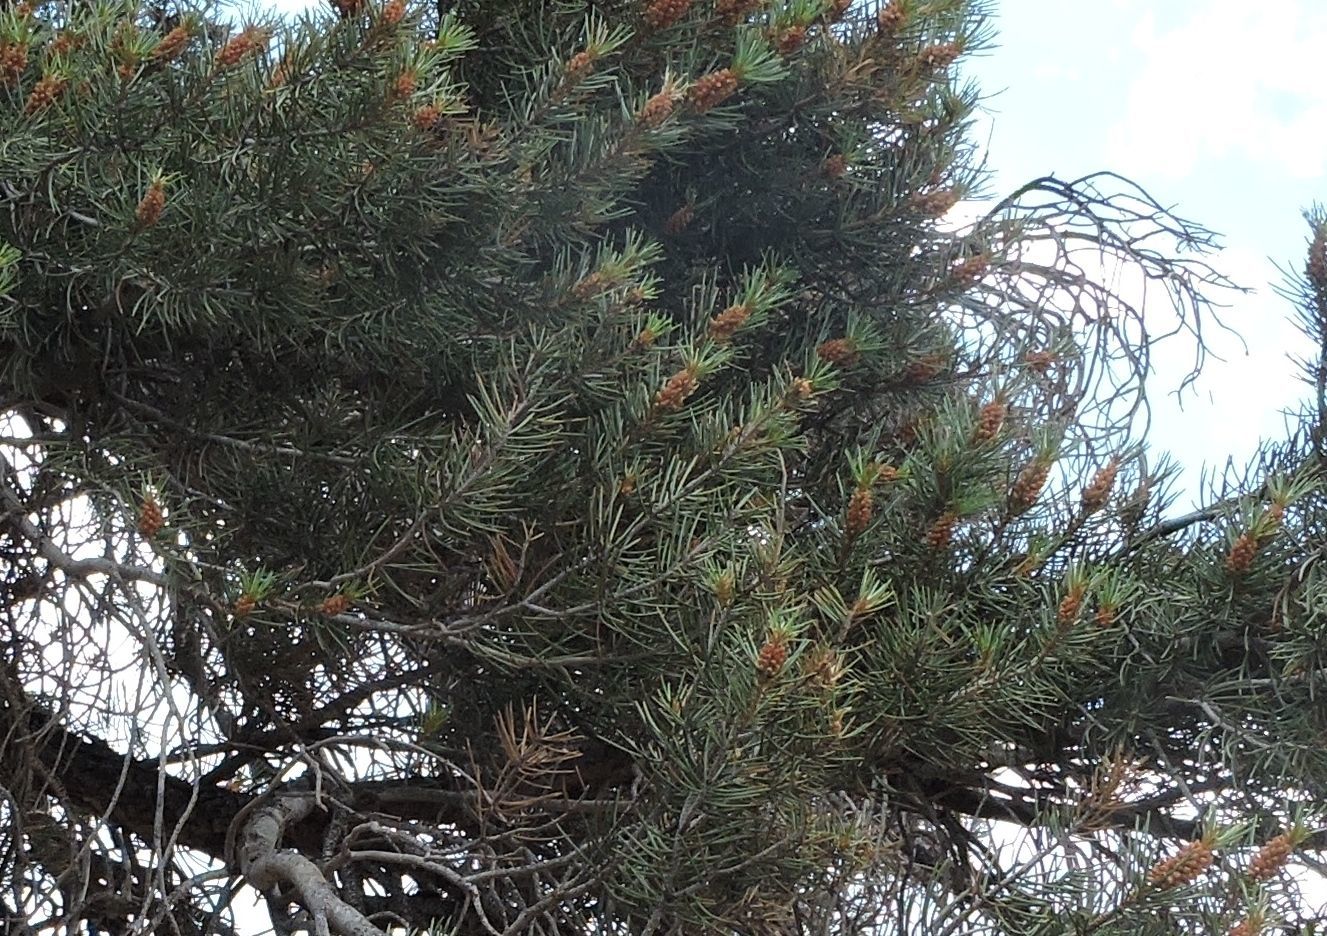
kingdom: Plantae
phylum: Tracheophyta
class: Pinopsida
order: Pinales
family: Pinaceae
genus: Pinus
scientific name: Pinus monophylla
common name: One-leaved nut pine
